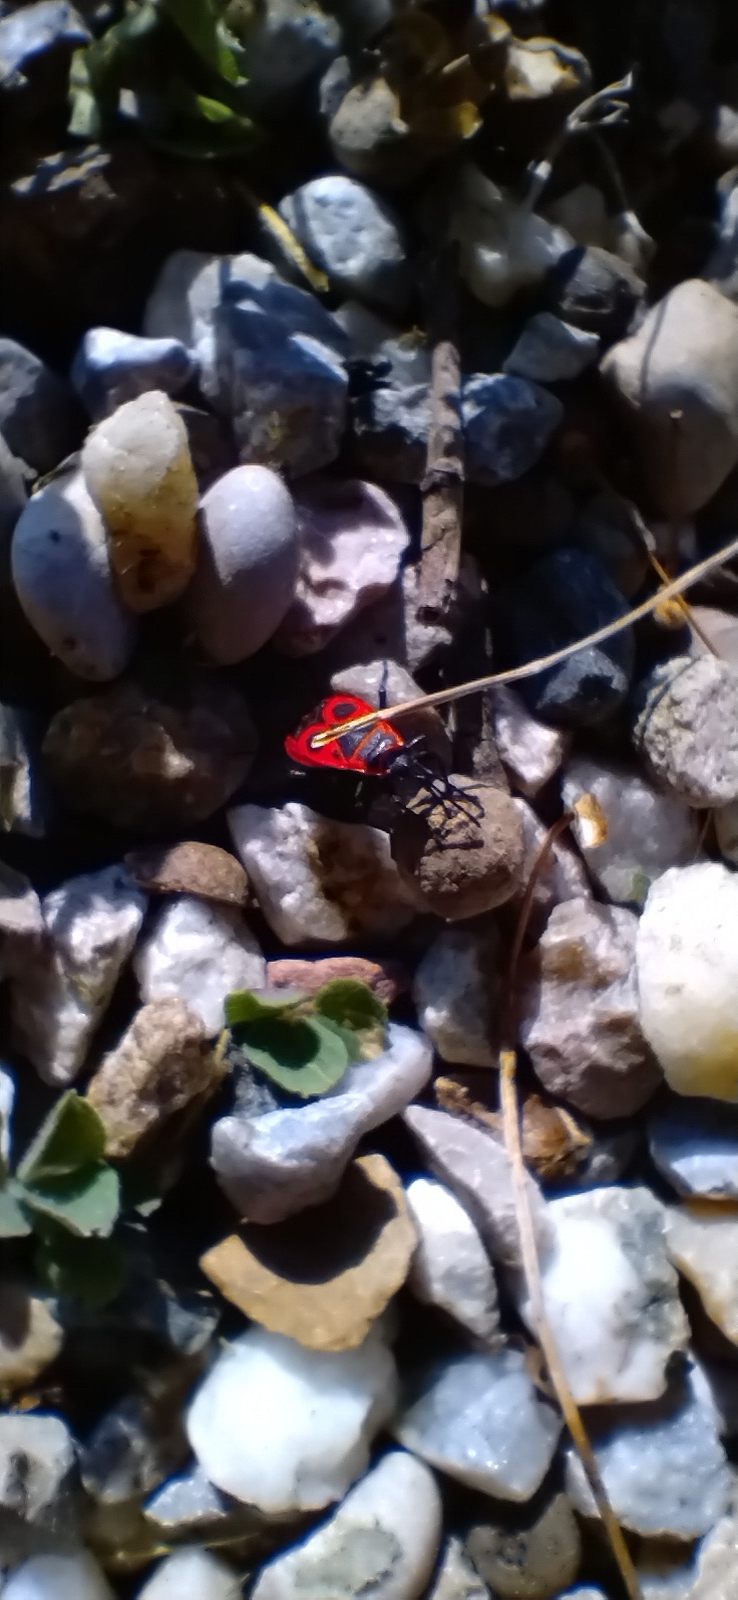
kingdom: Animalia
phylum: Arthropoda
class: Insecta
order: Hemiptera
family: Pyrrhocoridae
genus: Pyrrhocoris
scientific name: Pyrrhocoris apterus
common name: Firebug
